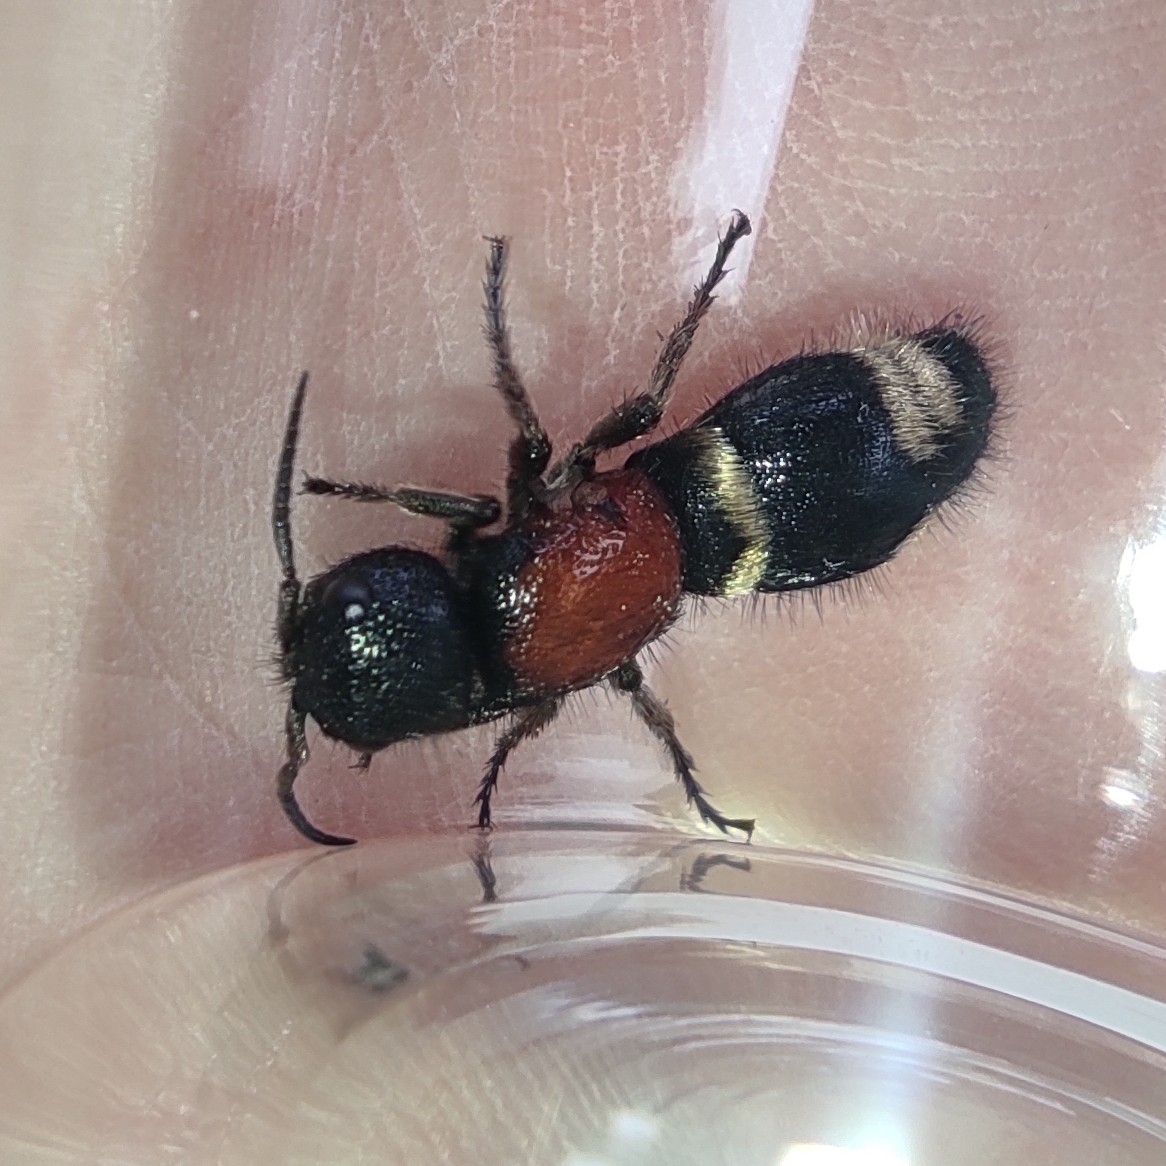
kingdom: Animalia
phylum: Arthropoda
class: Insecta
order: Hymenoptera
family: Mutillidae
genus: Mutilla
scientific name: Mutilla europaea
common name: Large velvet ant
